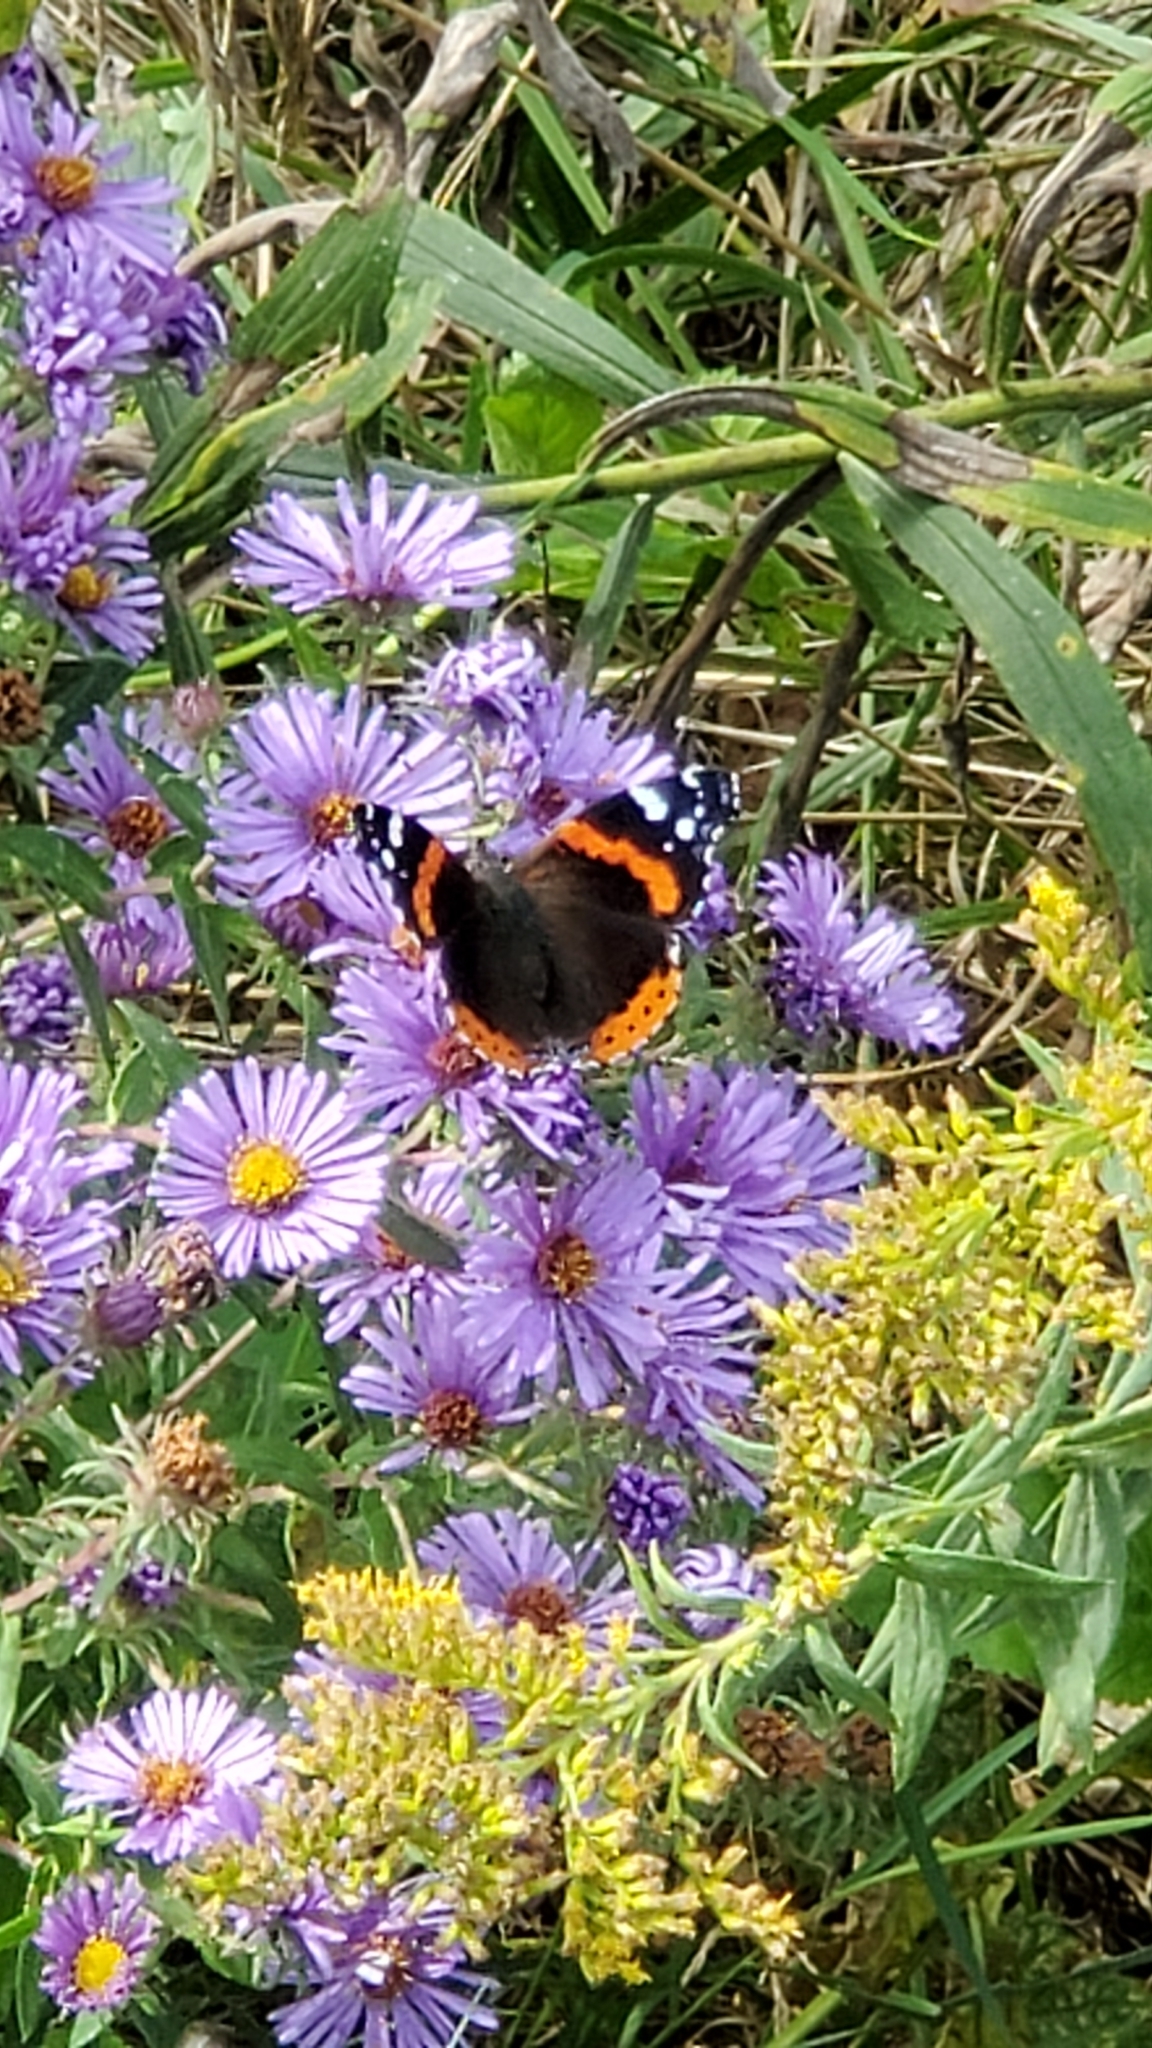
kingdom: Animalia
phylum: Arthropoda
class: Insecta
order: Lepidoptera
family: Nymphalidae
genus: Vanessa
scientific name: Vanessa atalanta
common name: Red admiral
